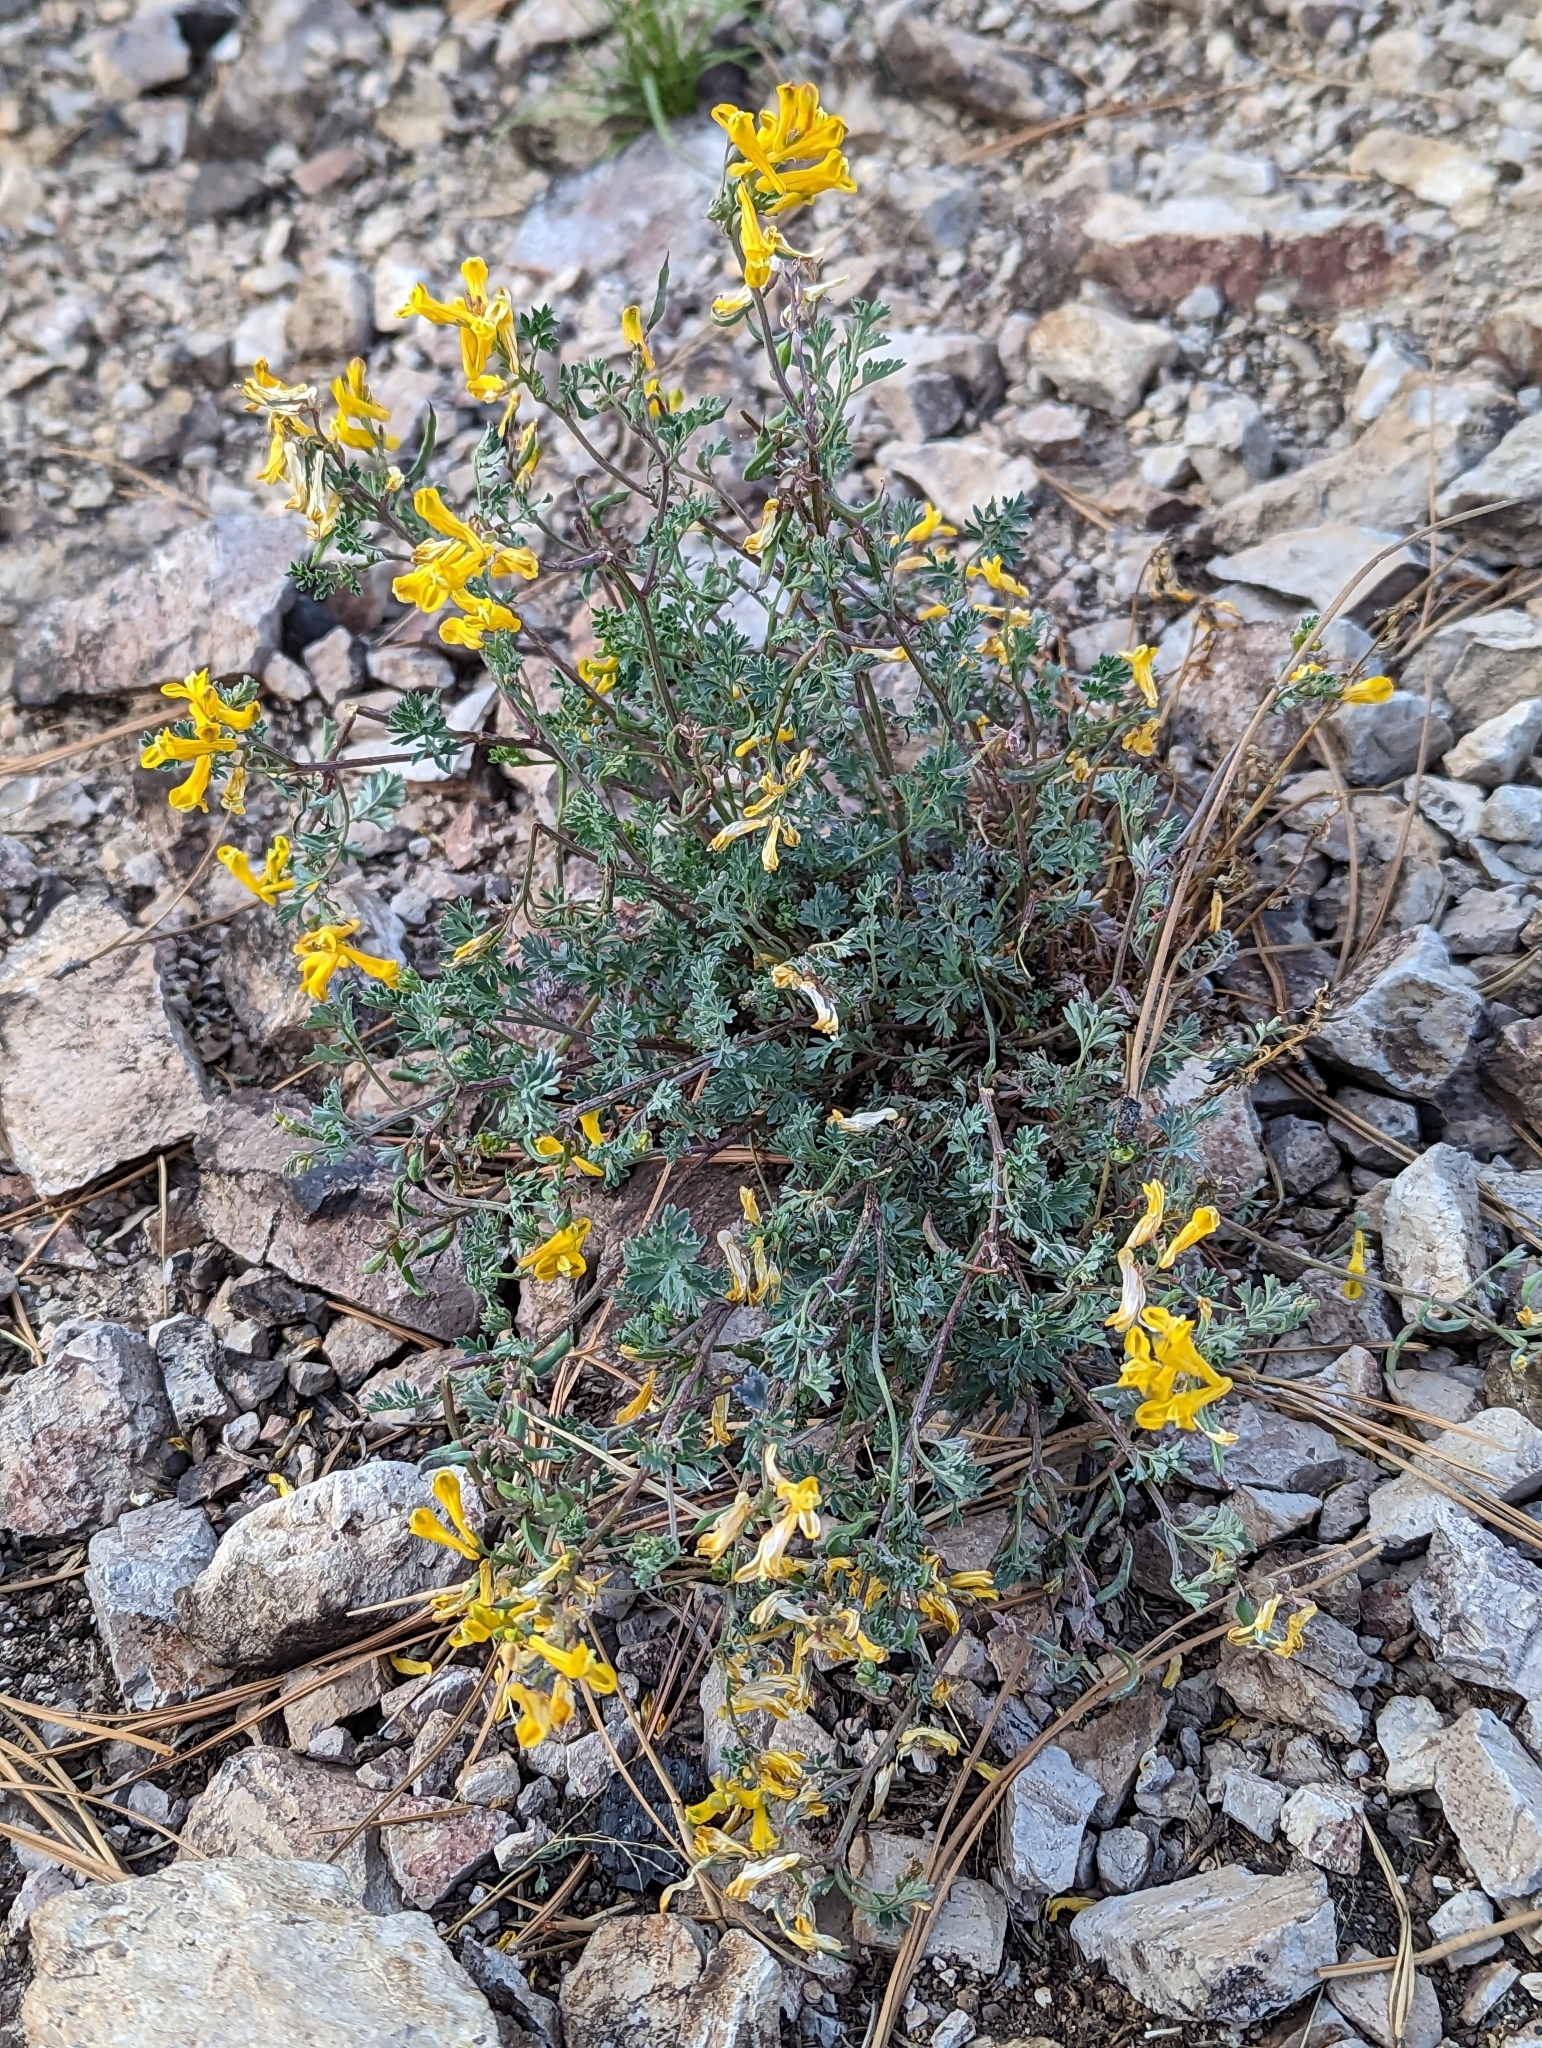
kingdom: Plantae
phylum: Tracheophyta
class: Magnoliopsida
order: Ranunculales
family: Papaveraceae
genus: Corydalis
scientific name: Corydalis aurea
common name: Golden corydalis
